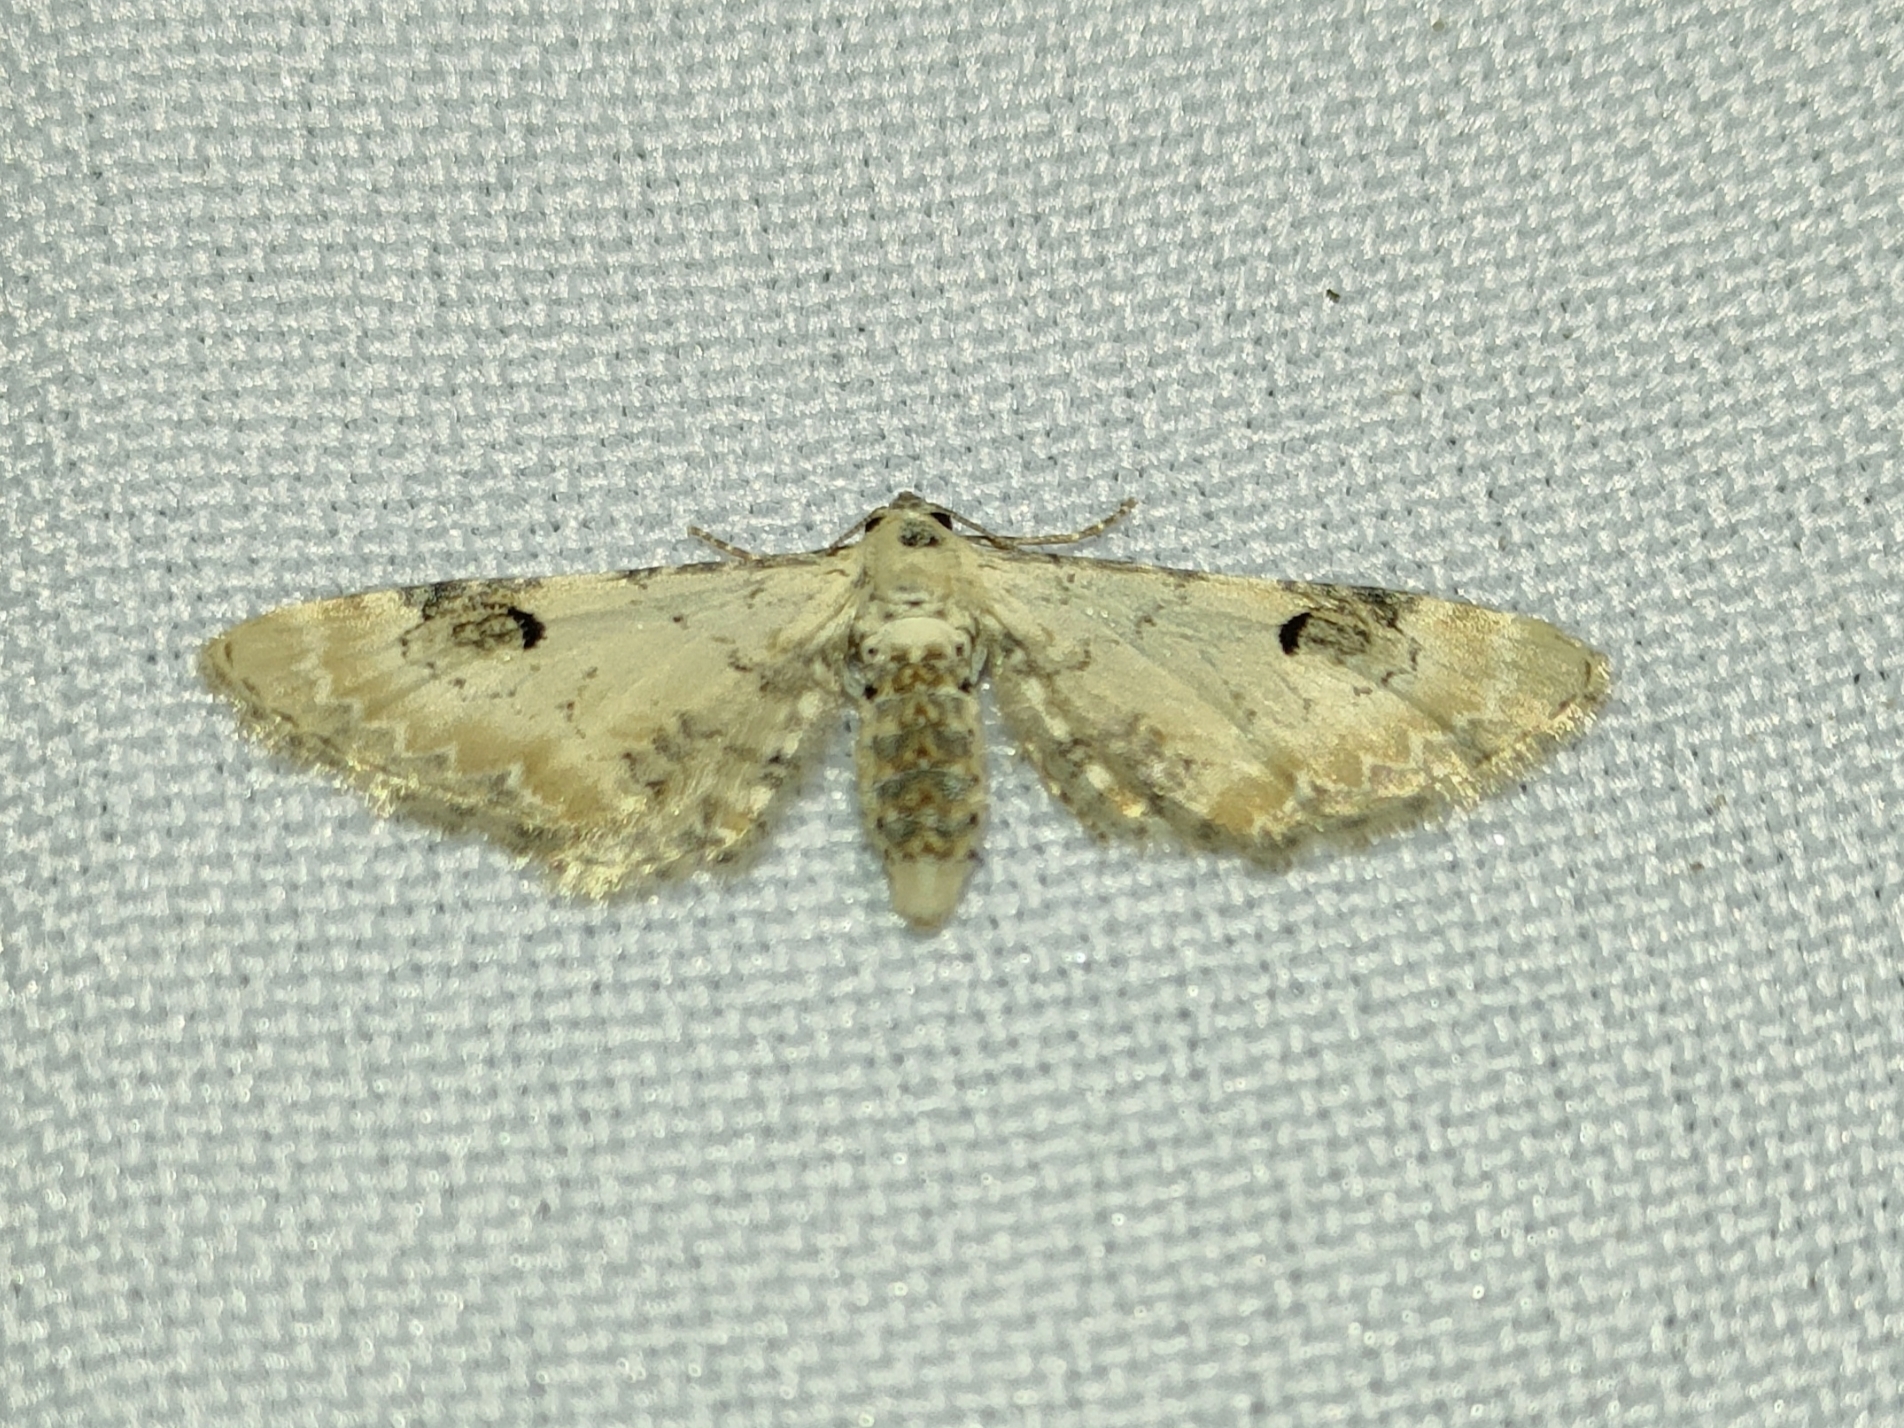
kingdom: Animalia
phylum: Arthropoda
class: Insecta
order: Lepidoptera
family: Geometridae
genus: Eupithecia
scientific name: Eupithecia centaureata
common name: Lime-speck pug
